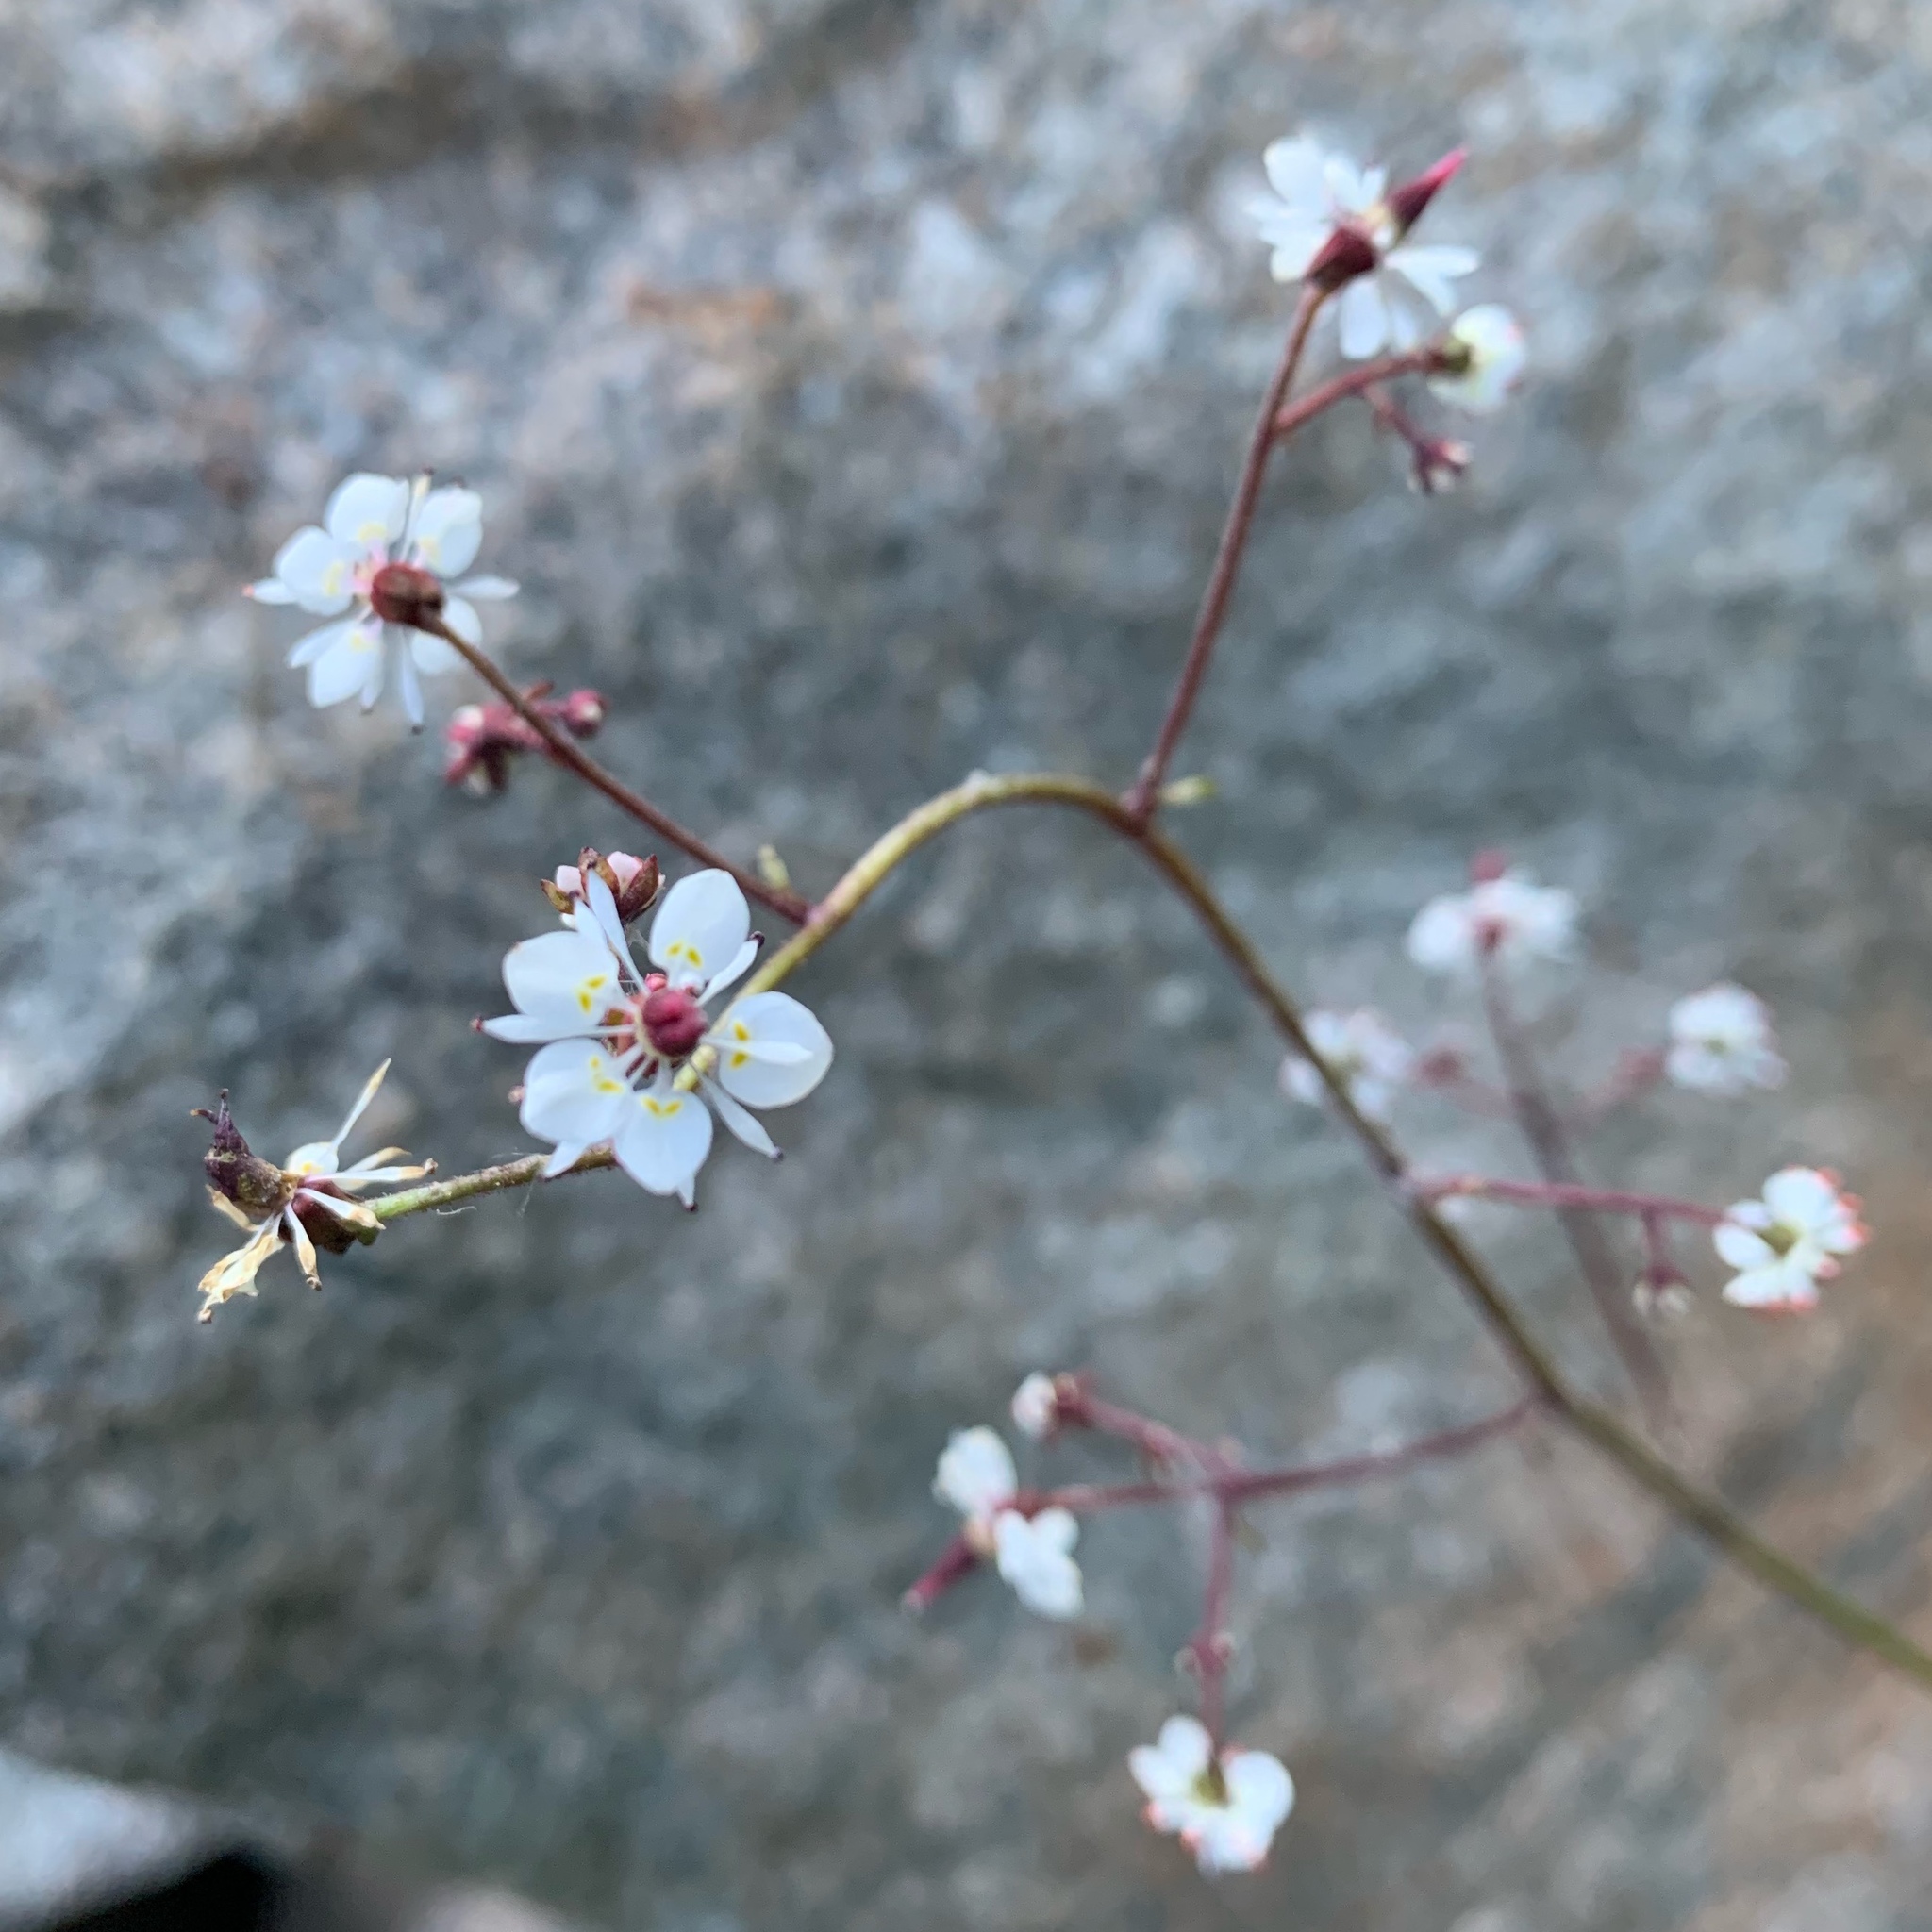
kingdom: Plantae
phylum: Tracheophyta
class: Magnoliopsida
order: Saxifragales
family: Saxifragaceae
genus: Micranthes
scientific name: Micranthes odontoloma
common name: Brook saxifrage
